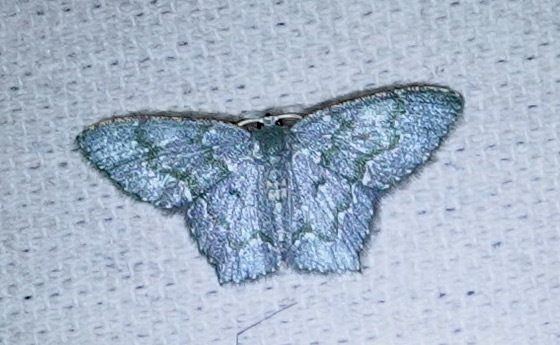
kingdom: Animalia
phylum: Arthropoda
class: Insecta
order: Lepidoptera
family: Geometridae
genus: Chloropteryx
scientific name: Chloropteryx opalaria
